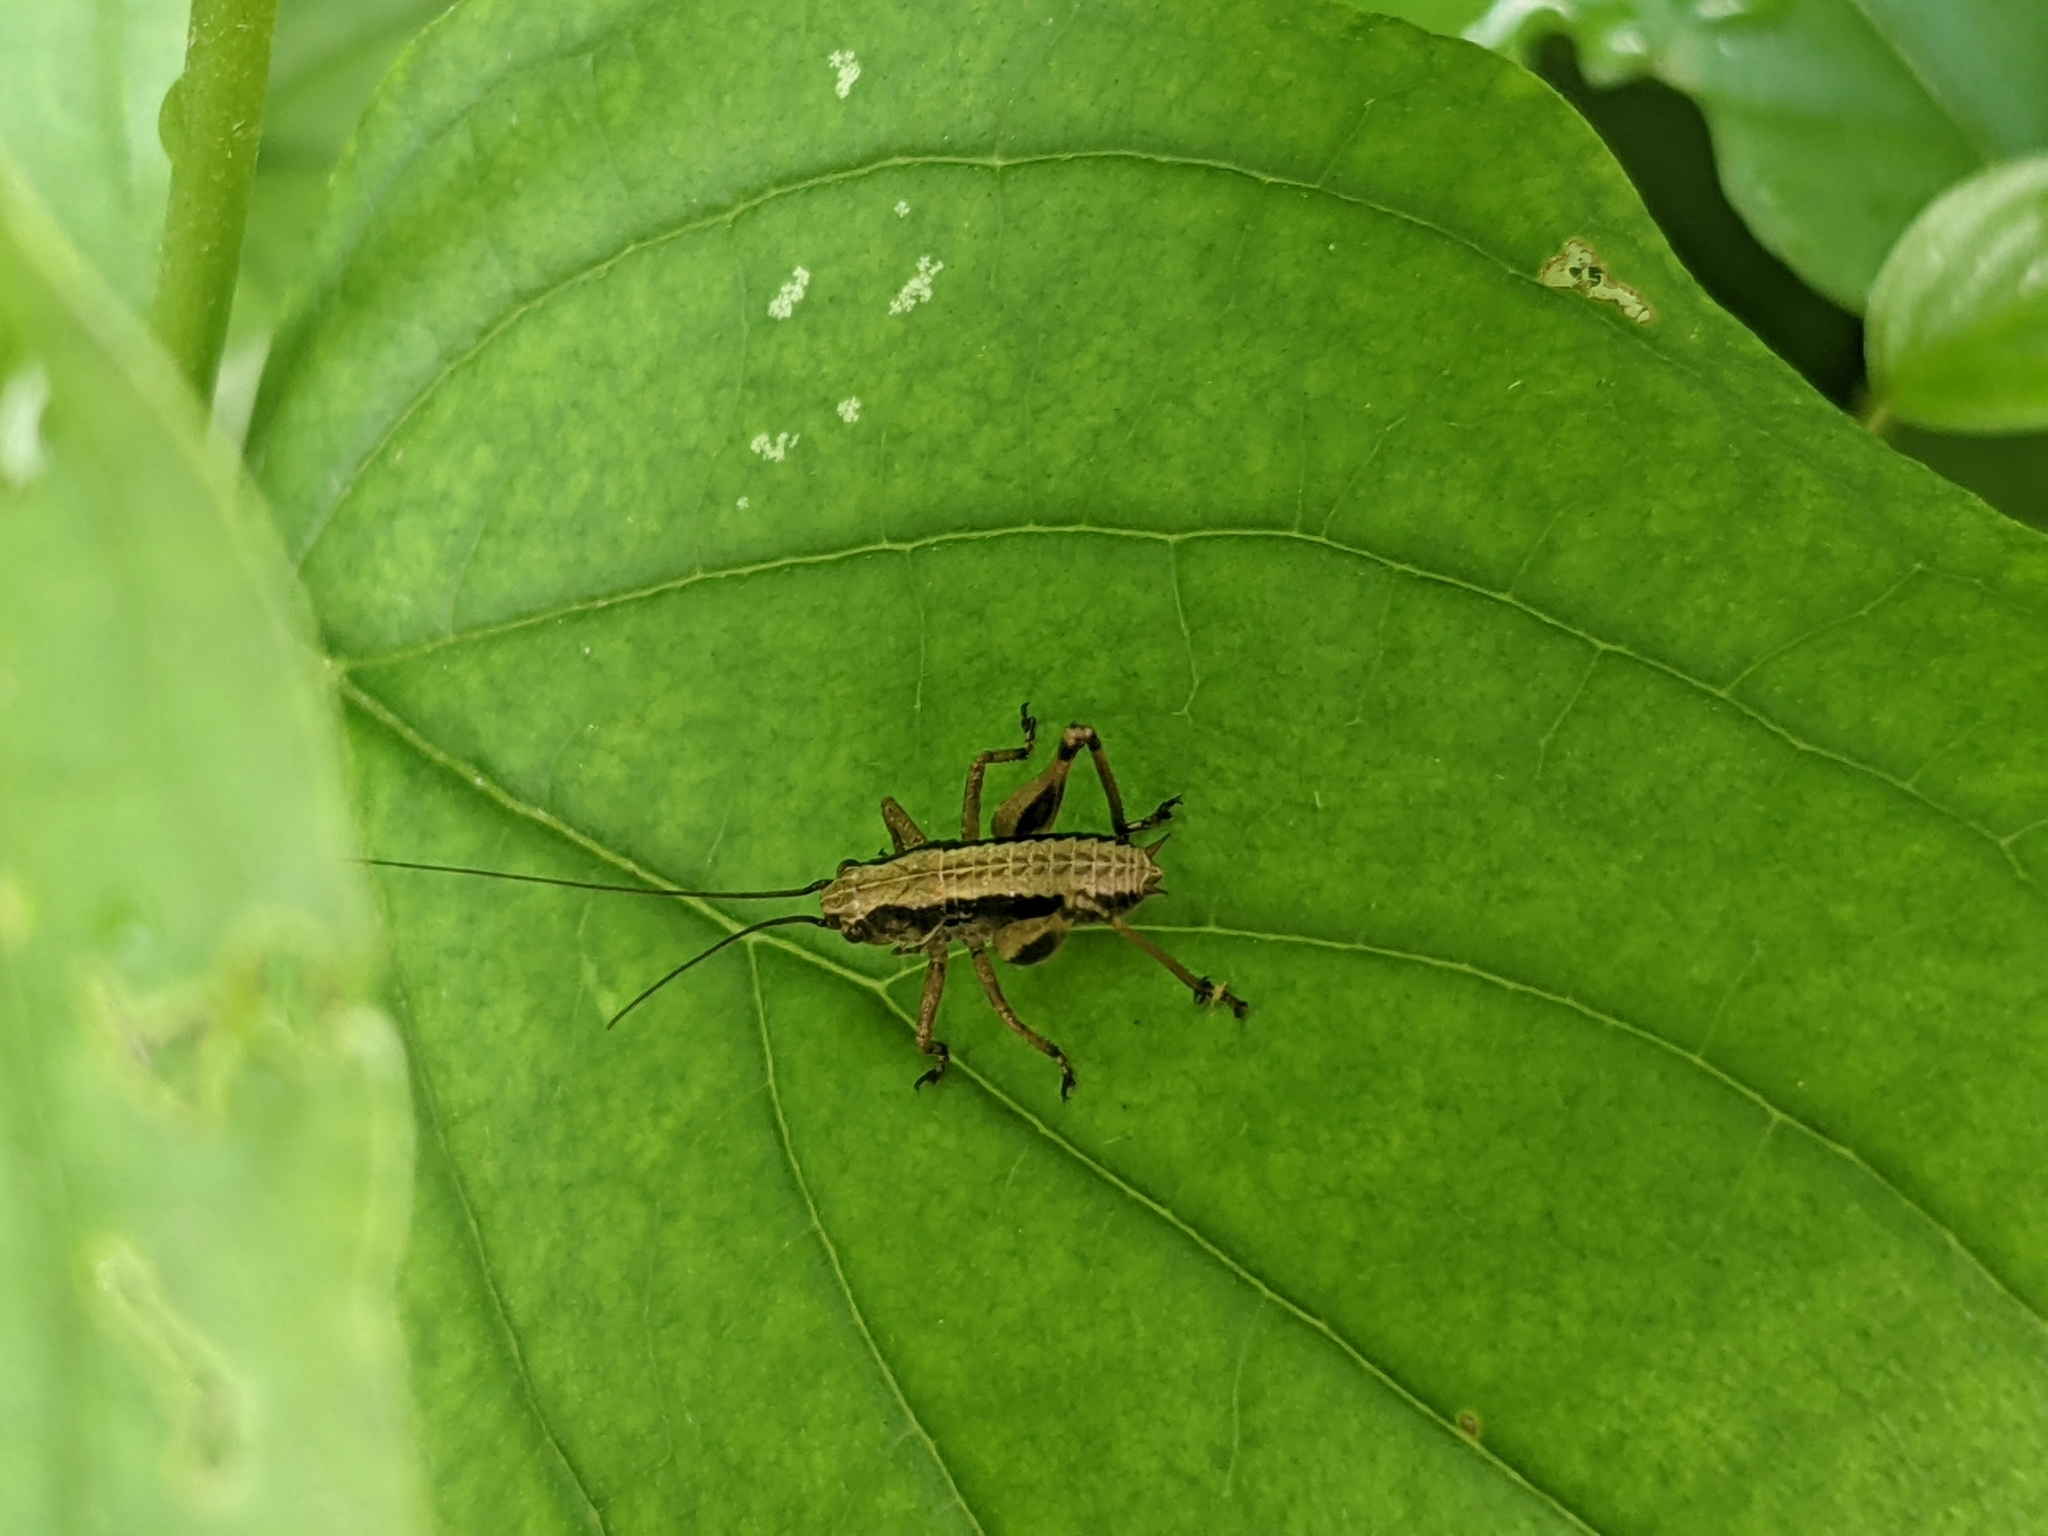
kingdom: Animalia
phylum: Arthropoda
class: Insecta
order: Orthoptera
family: Tettigoniidae
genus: Pholidoptera
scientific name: Pholidoptera griseoaptera
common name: Dark bush-cricket
